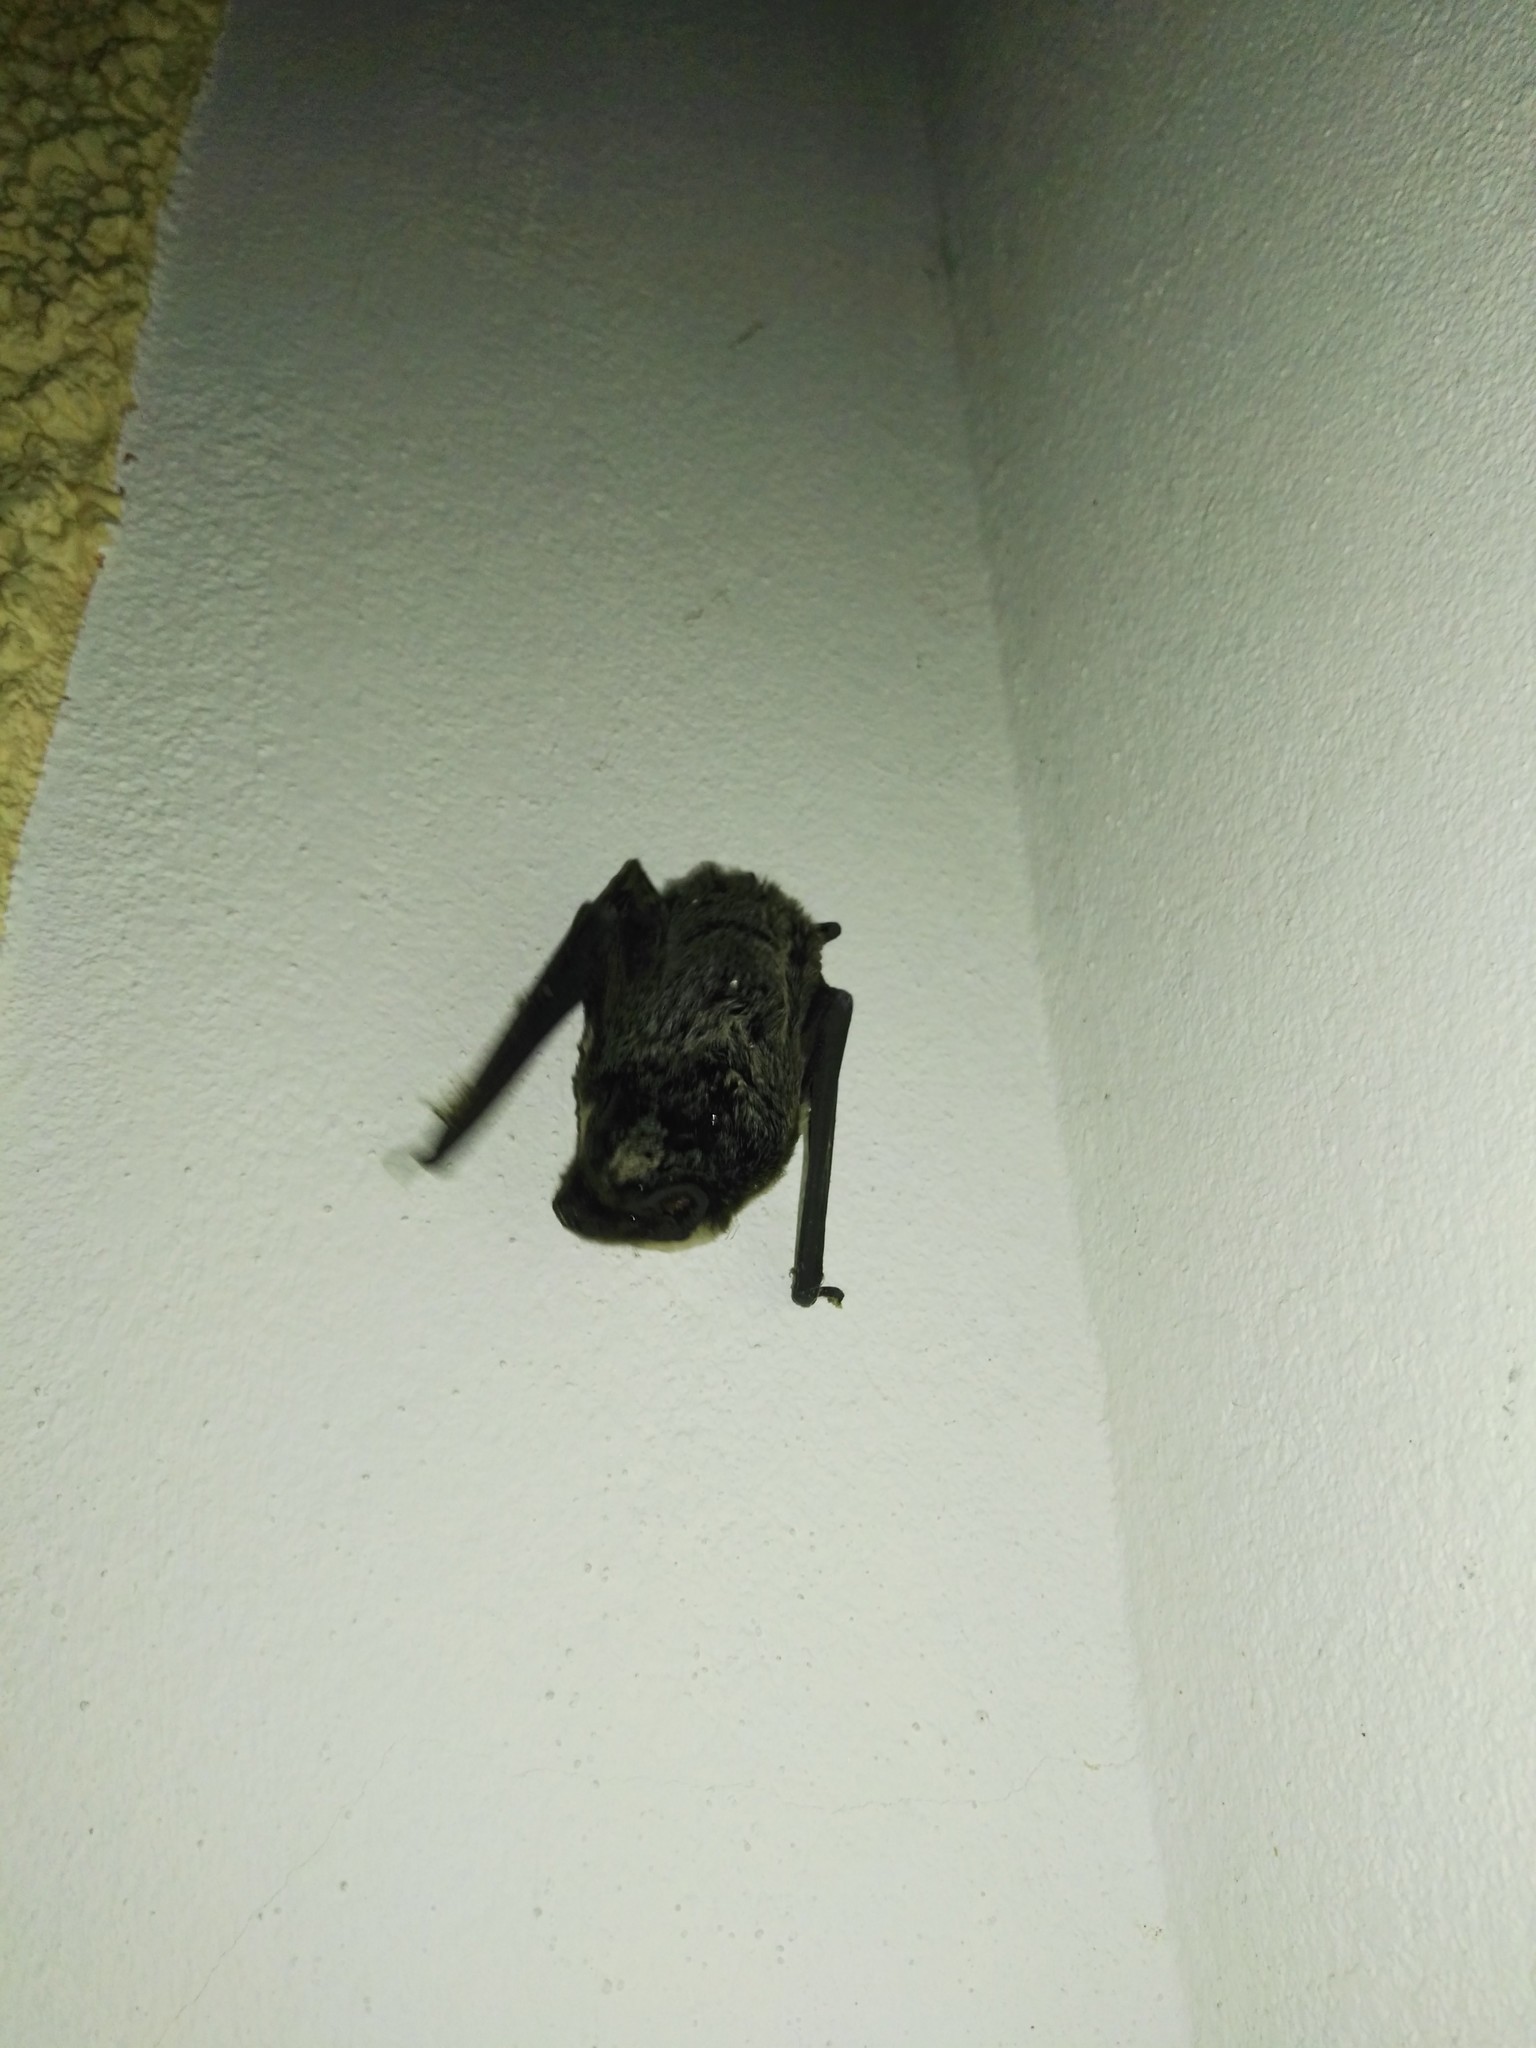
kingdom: Animalia
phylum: Chordata
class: Mammalia
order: Chiroptera
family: Vespertilionidae
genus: Vespertilio
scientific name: Vespertilio murinus
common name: Particolored bat
